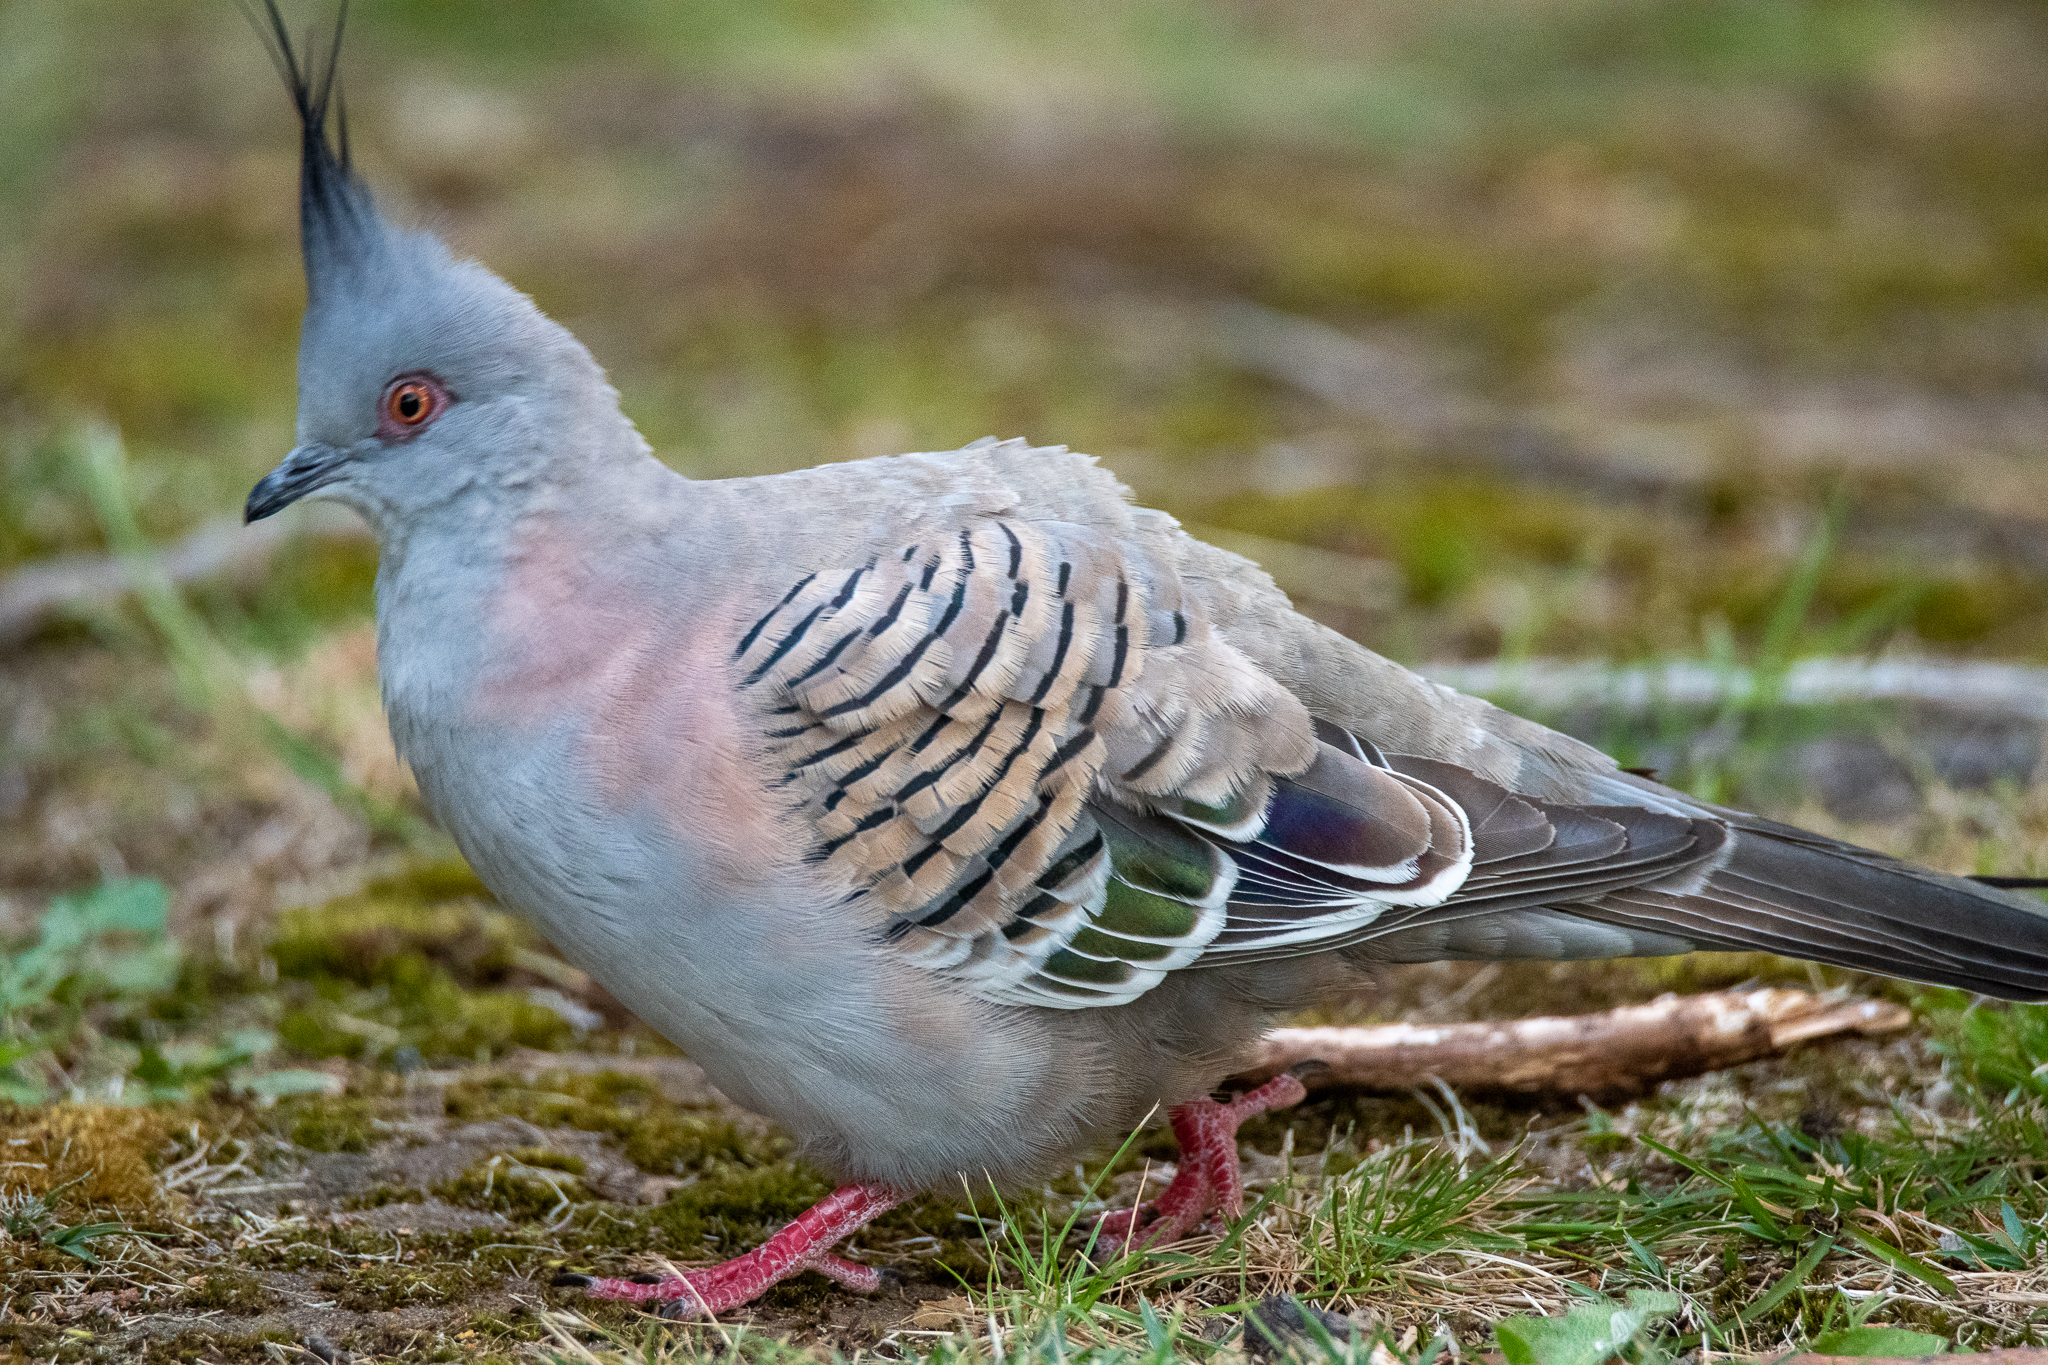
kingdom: Animalia
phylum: Chordata
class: Aves
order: Columbiformes
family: Columbidae
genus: Ocyphaps
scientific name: Ocyphaps lophotes
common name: Crested pigeon
